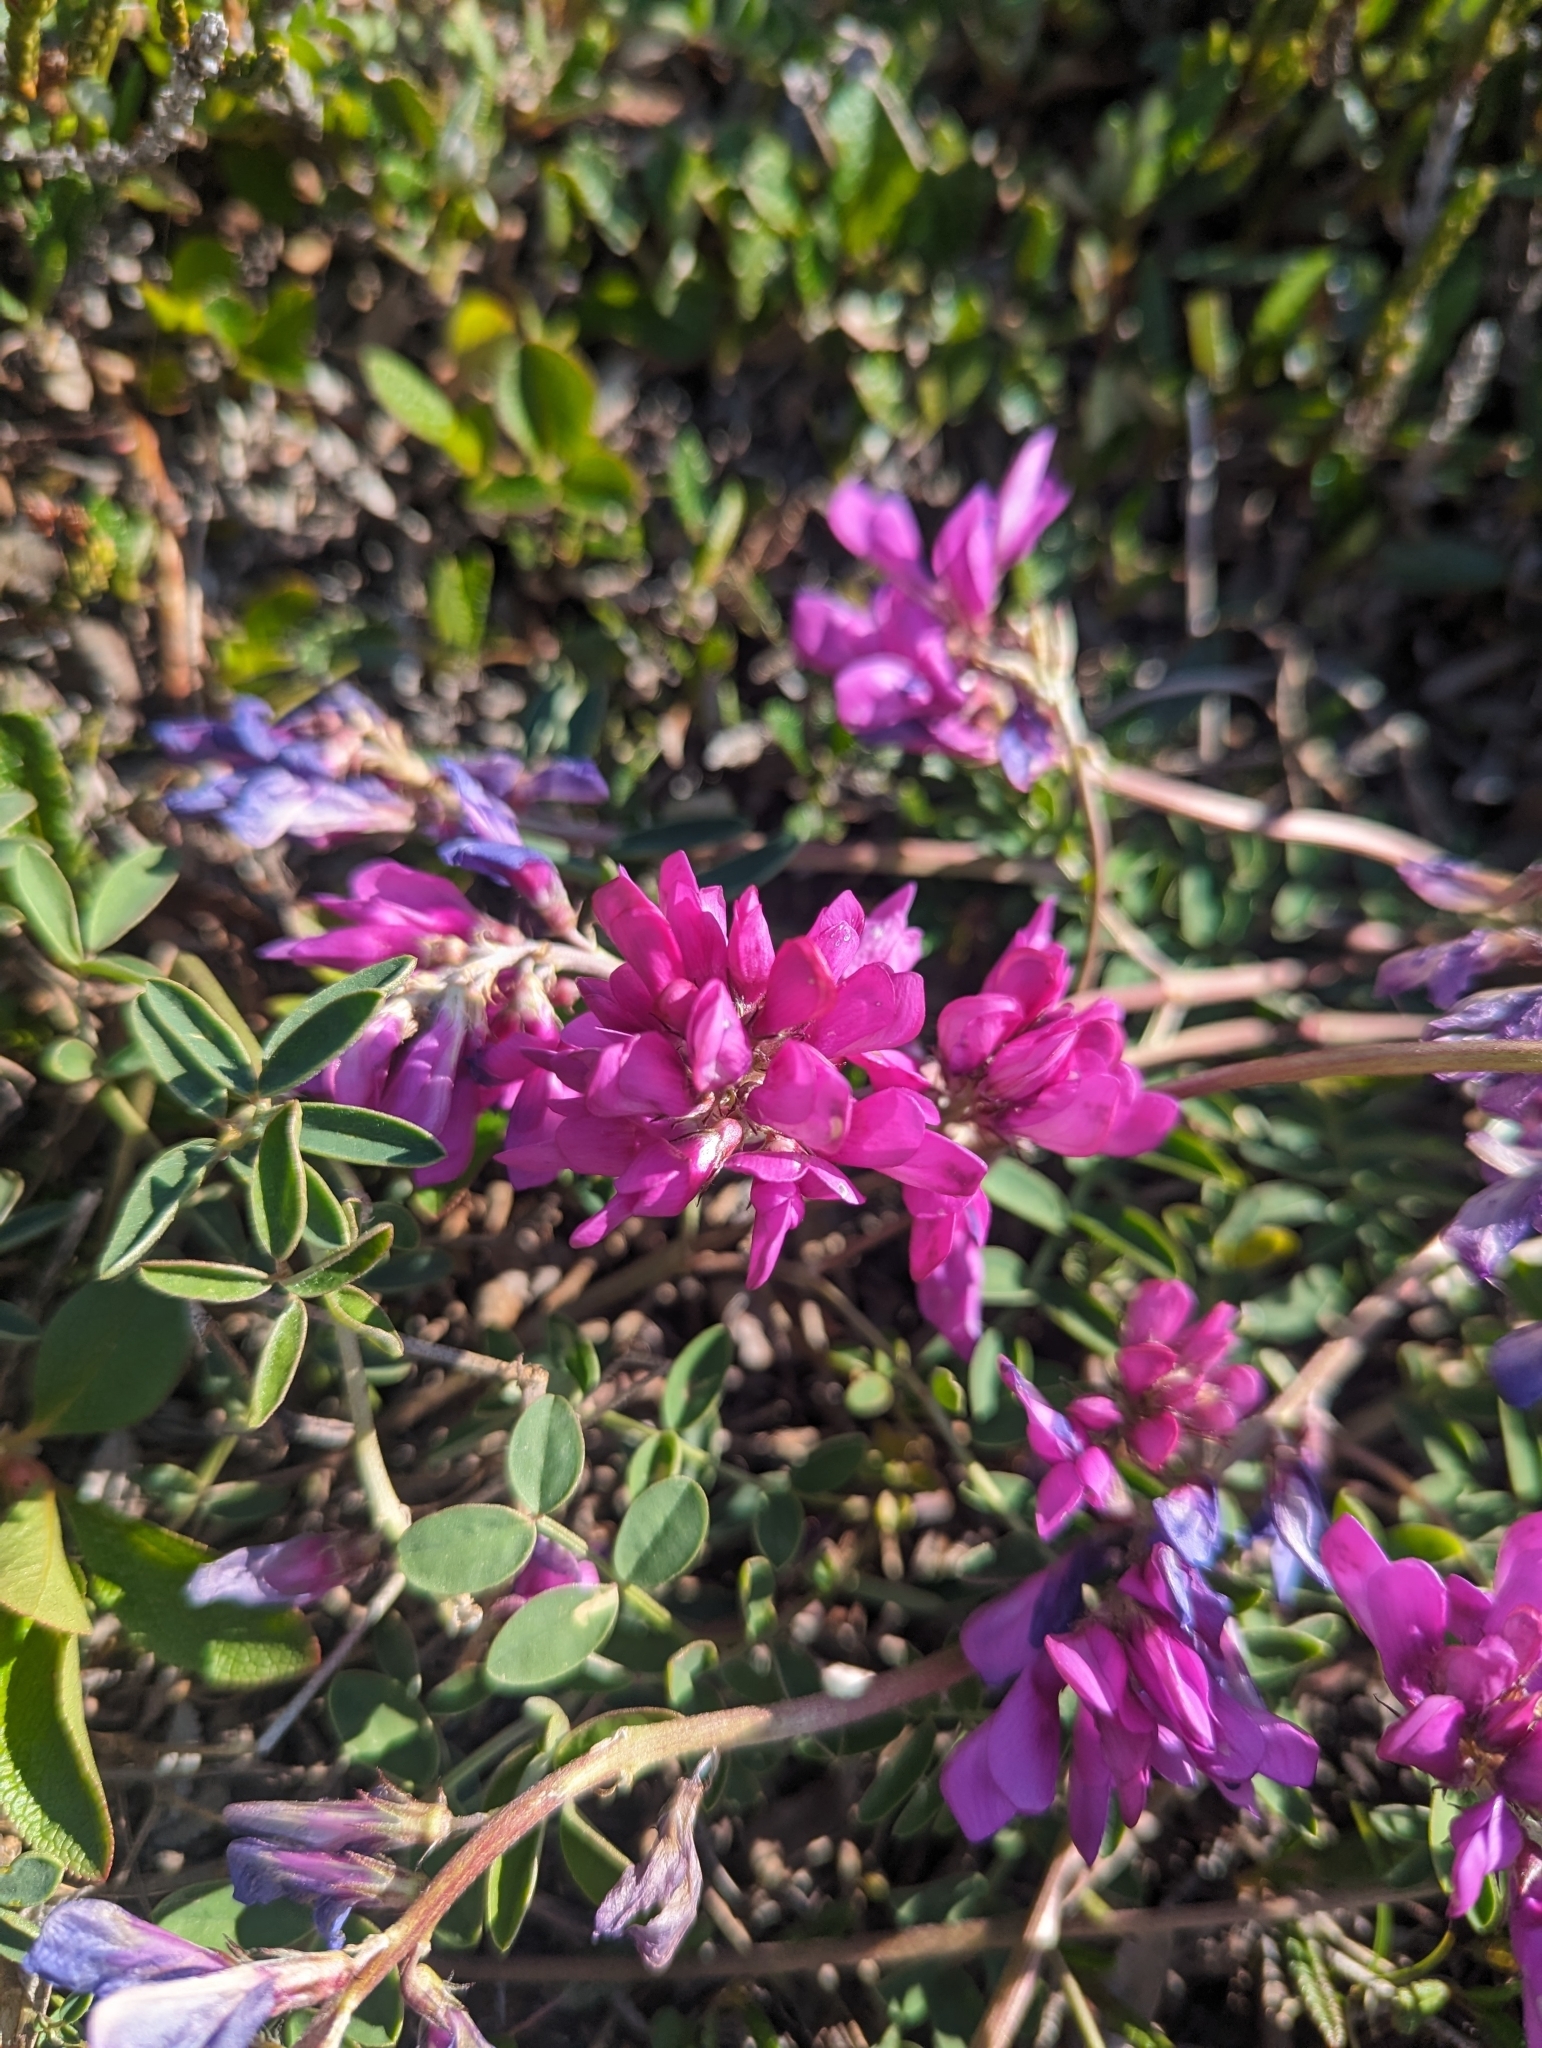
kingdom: Plantae
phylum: Tracheophyta
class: Magnoliopsida
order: Fabales
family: Fabaceae
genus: Hedysarum
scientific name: Hedysarum boreale
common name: Northern sweet-vetch
